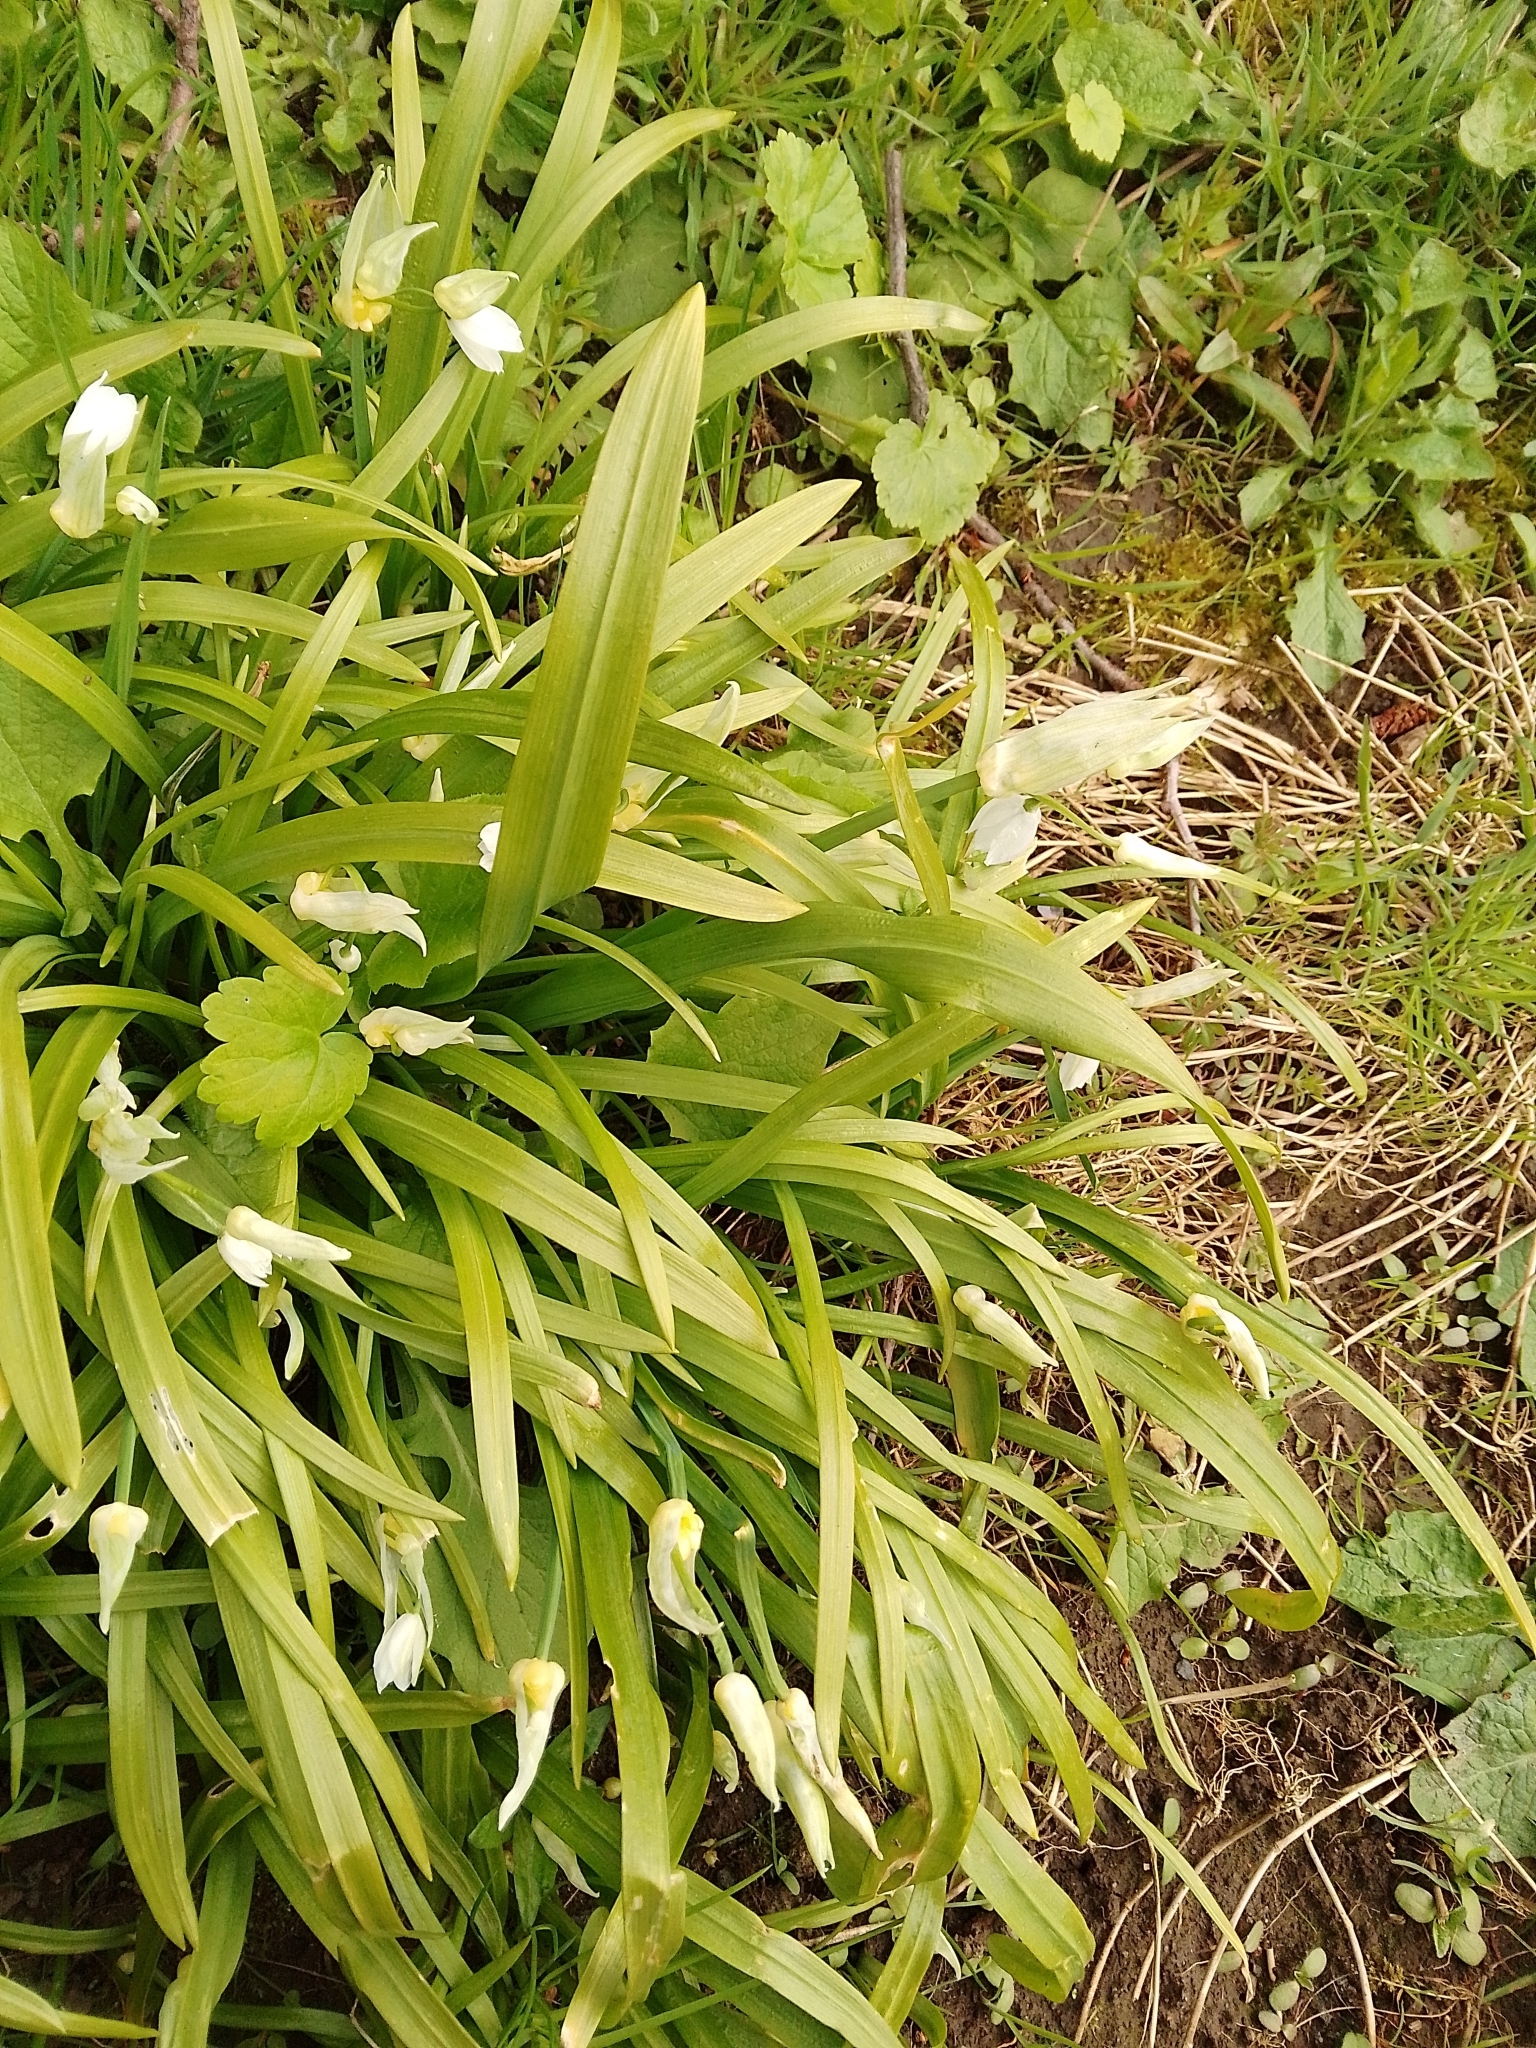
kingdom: Plantae
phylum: Tracheophyta
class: Liliopsida
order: Asparagales
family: Amaryllidaceae
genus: Allium
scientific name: Allium paradoxum
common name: Few-flowered garlic
